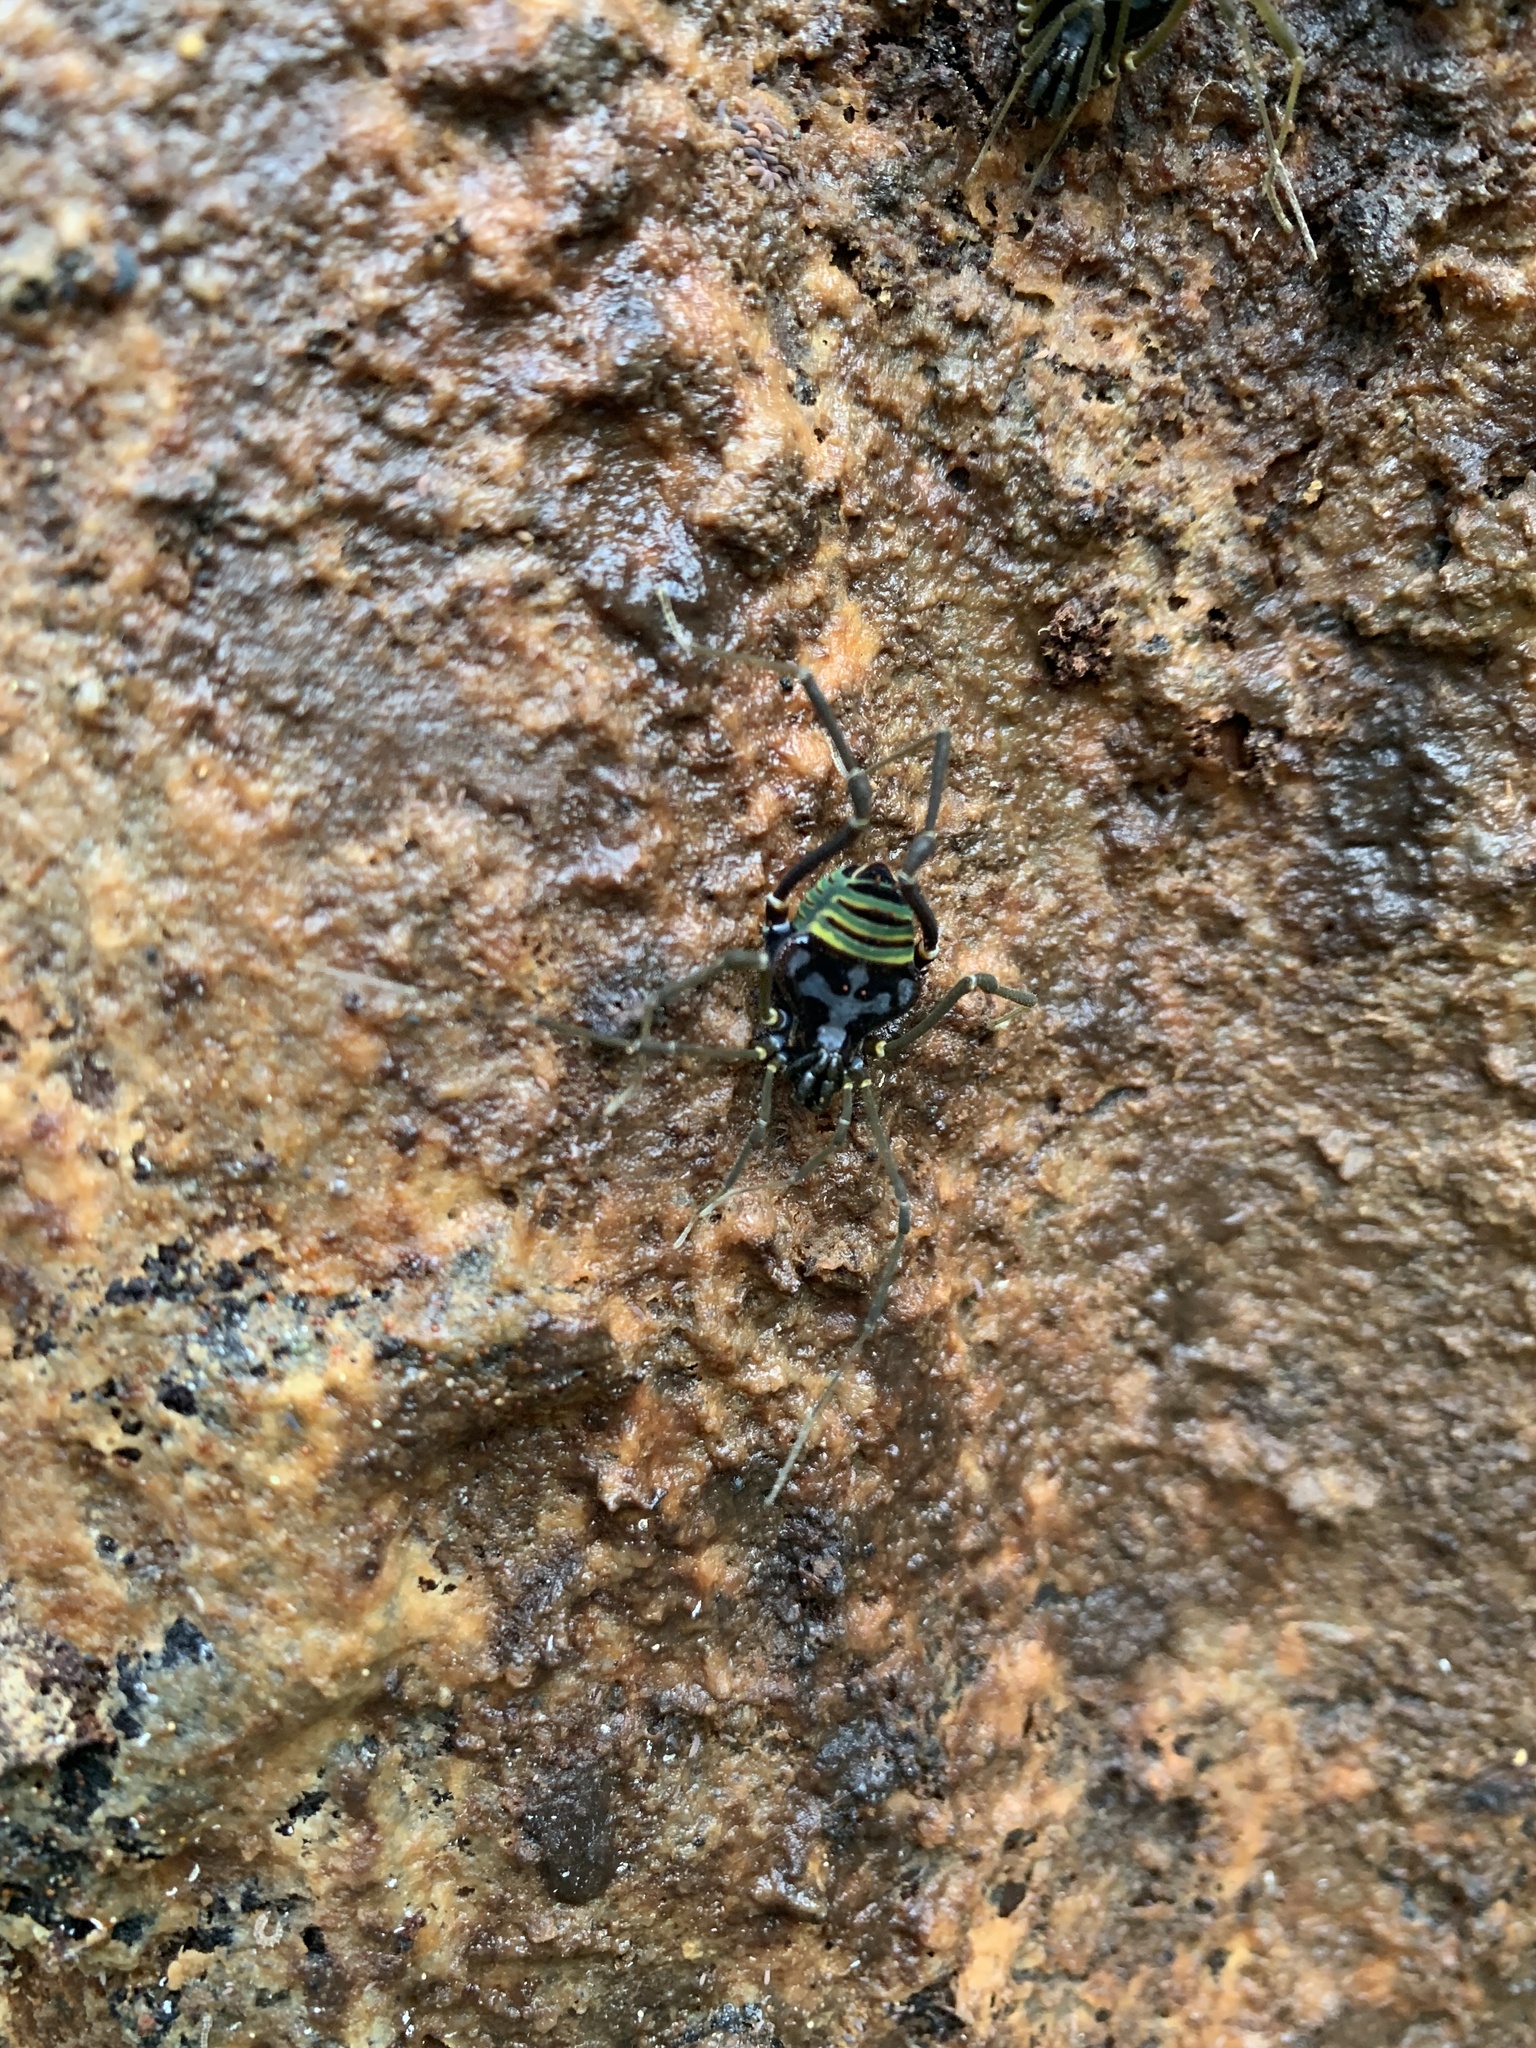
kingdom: Animalia
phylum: Arthropoda
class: Arachnida
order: Opiliones
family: Gonyleptidae
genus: Sadocus
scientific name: Sadocus asperatus
